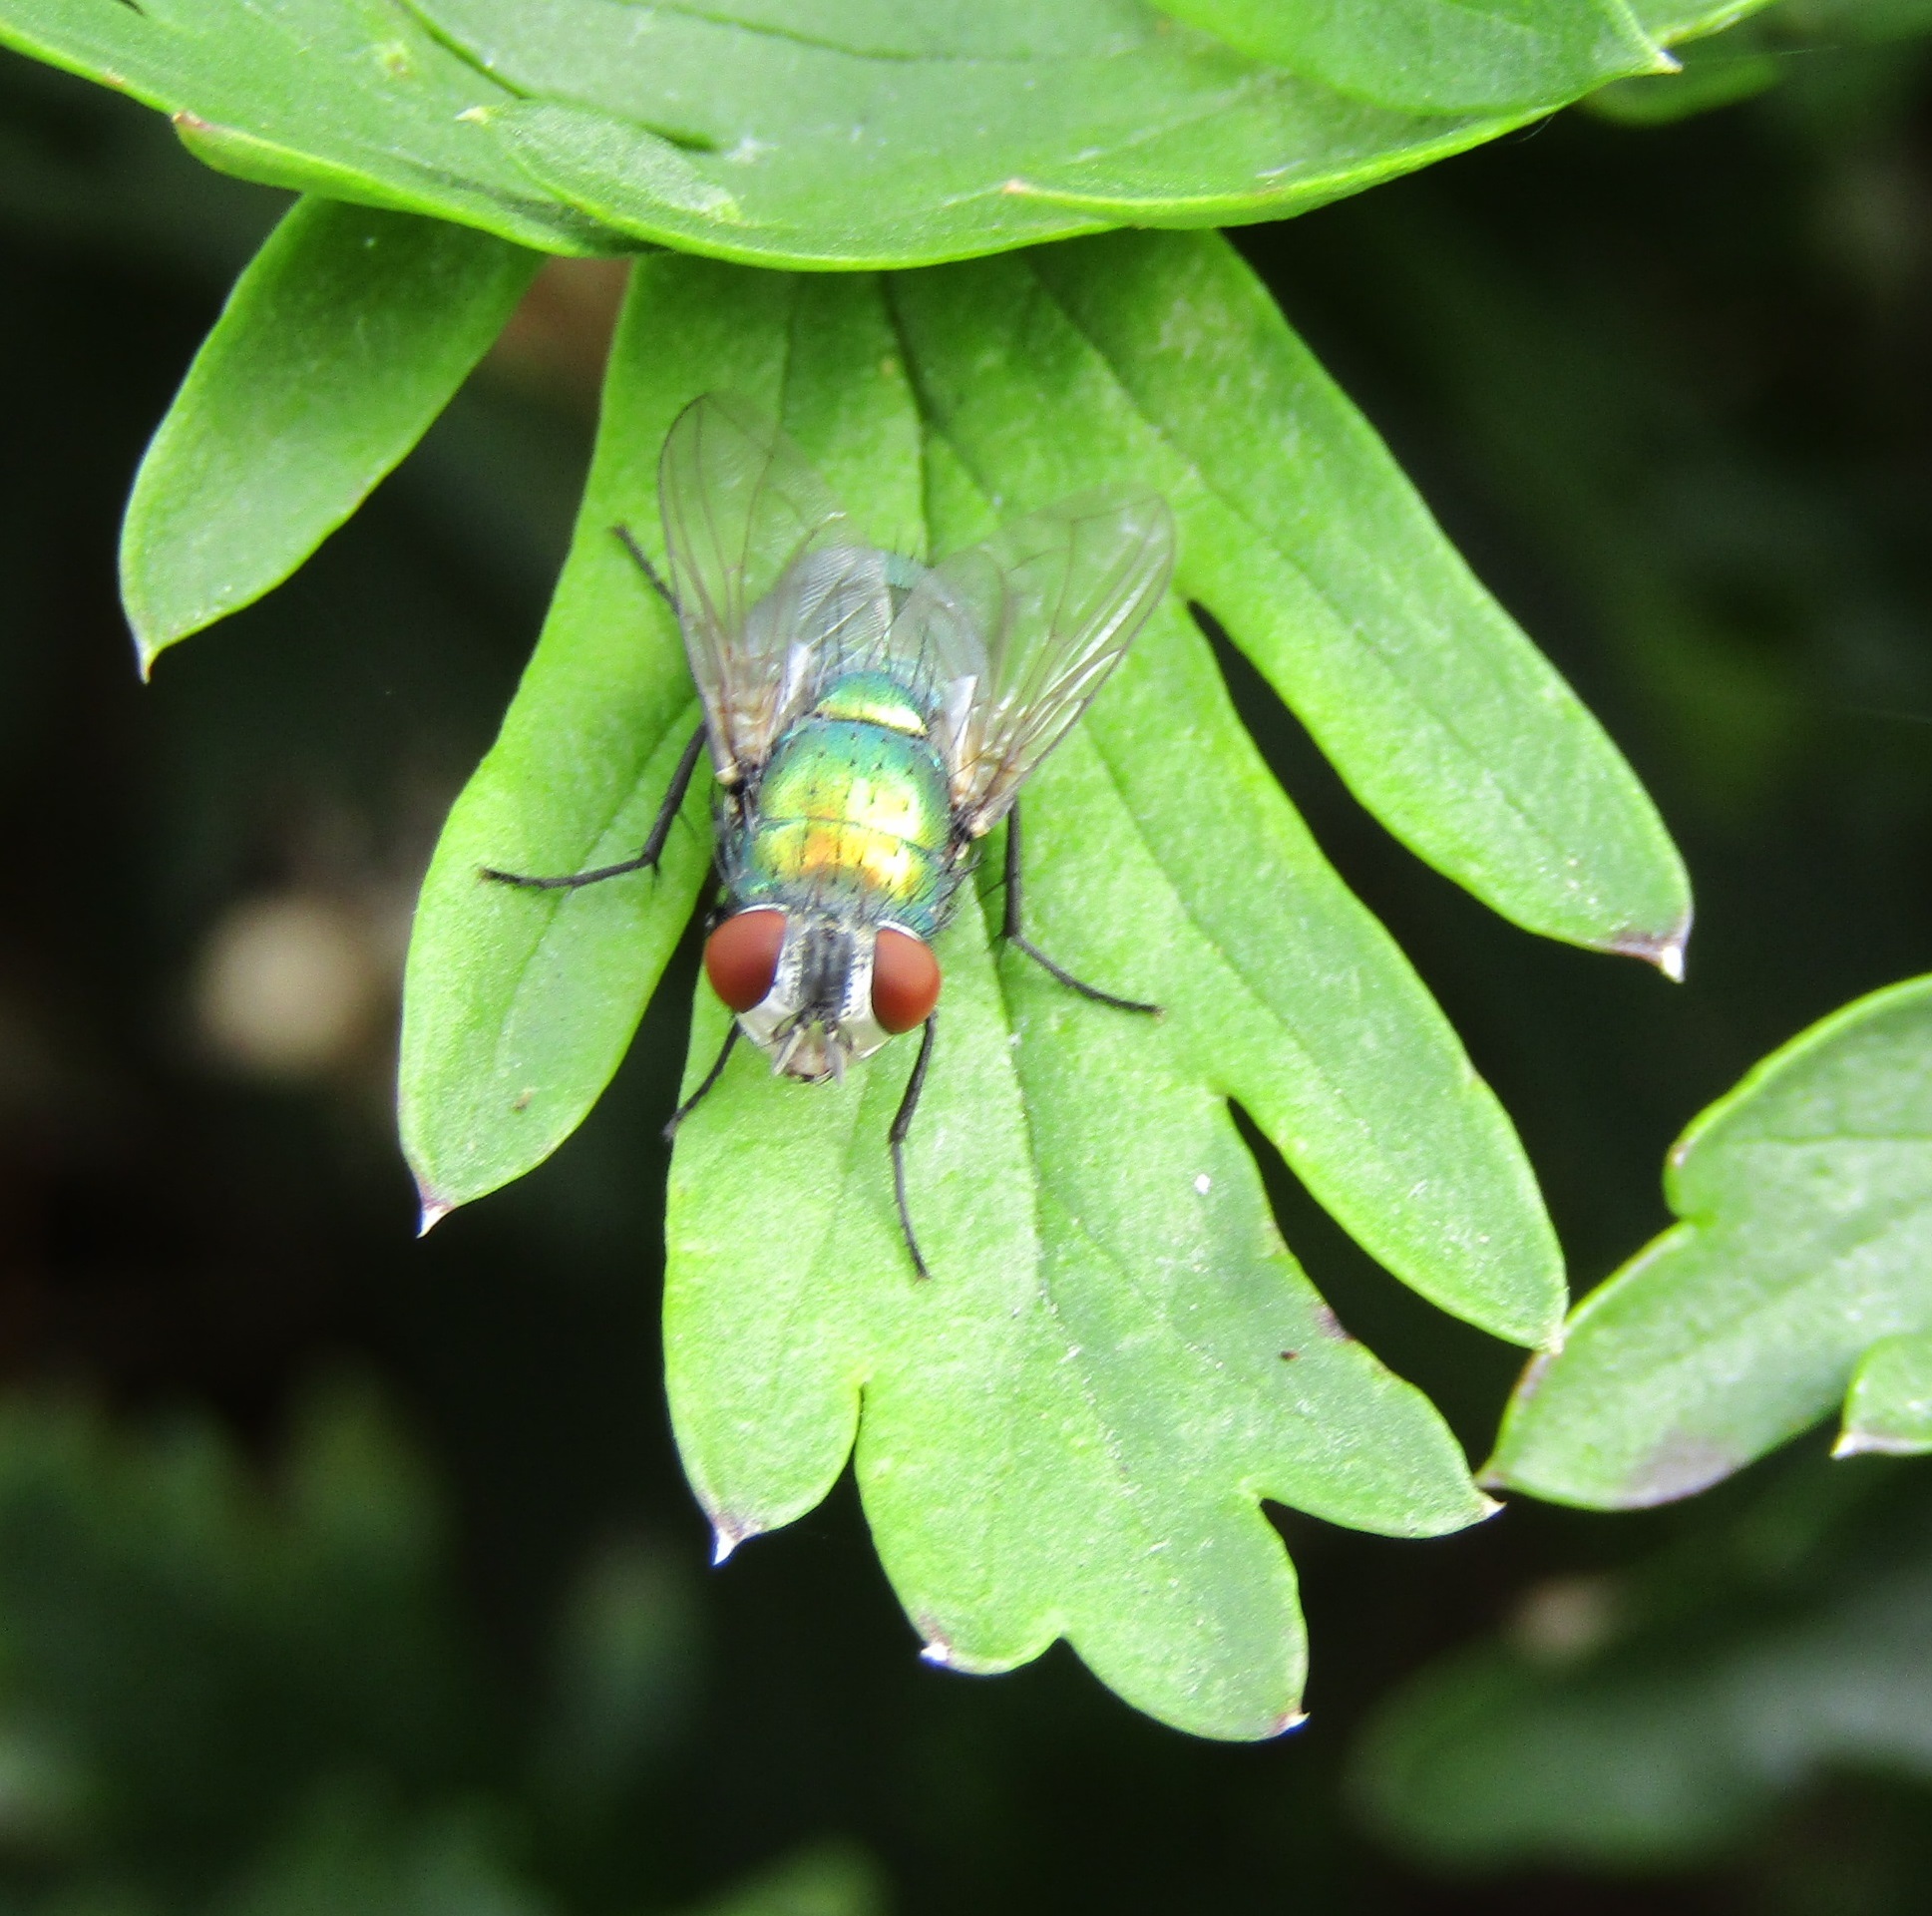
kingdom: Animalia
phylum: Arthropoda
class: Insecta
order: Diptera
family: Calliphoridae
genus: Lucilia
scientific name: Lucilia sericata
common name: Blow fly
